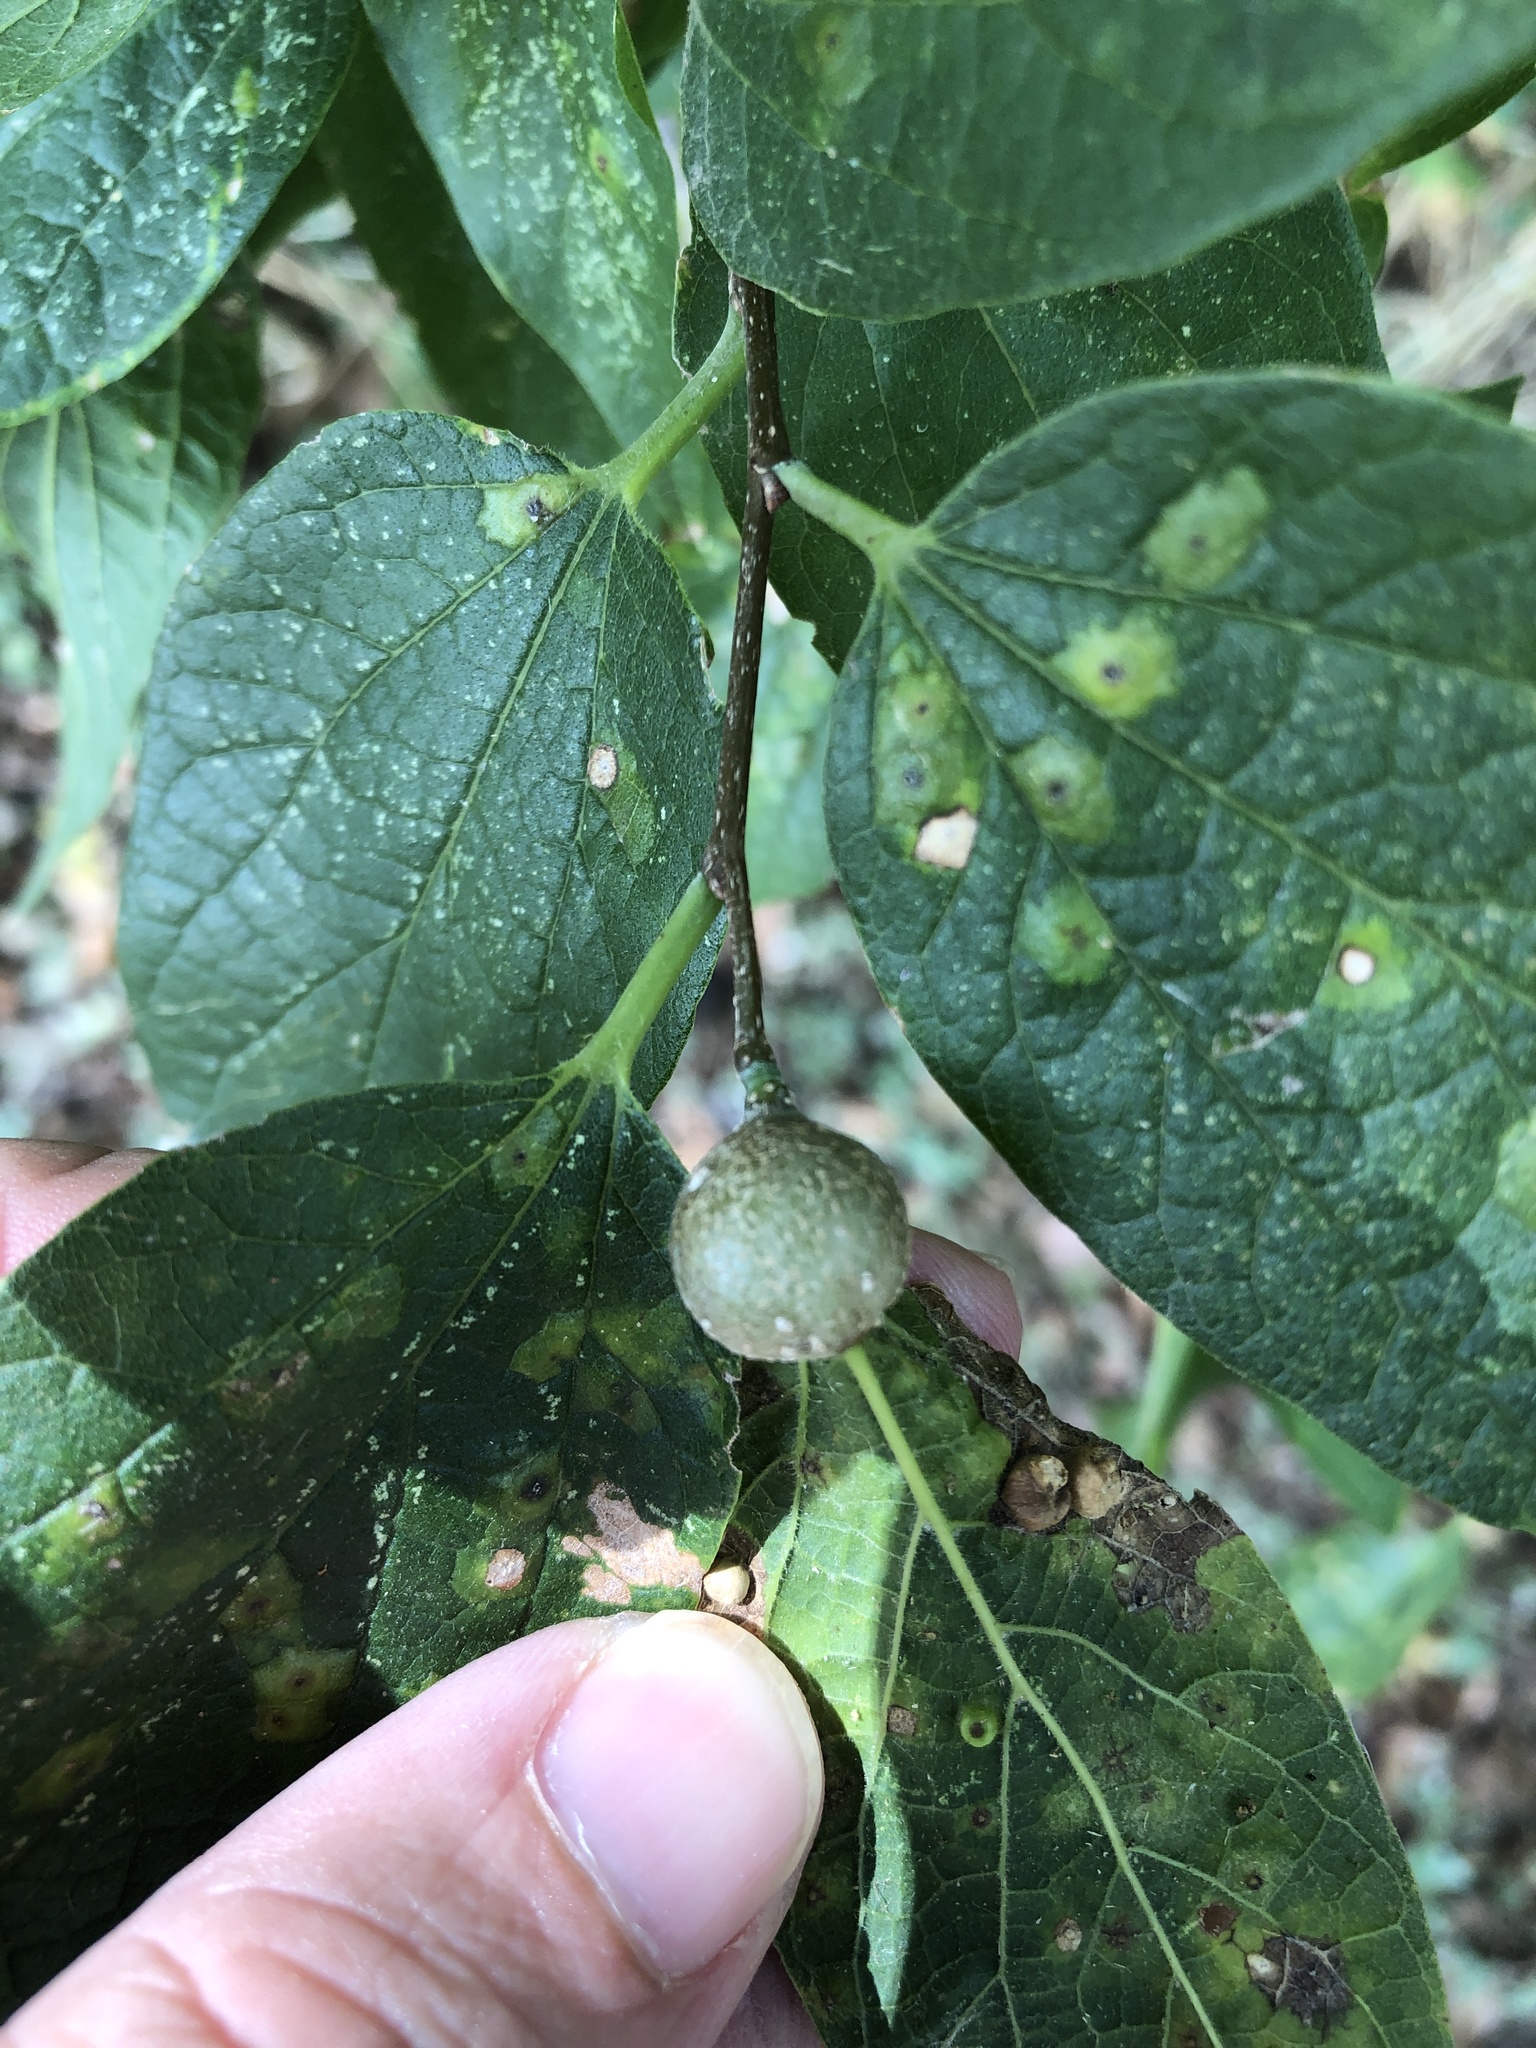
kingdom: Animalia
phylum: Arthropoda
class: Insecta
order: Hemiptera
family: Aphalaridae
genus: Pachypsylla
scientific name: Pachypsylla venusta
